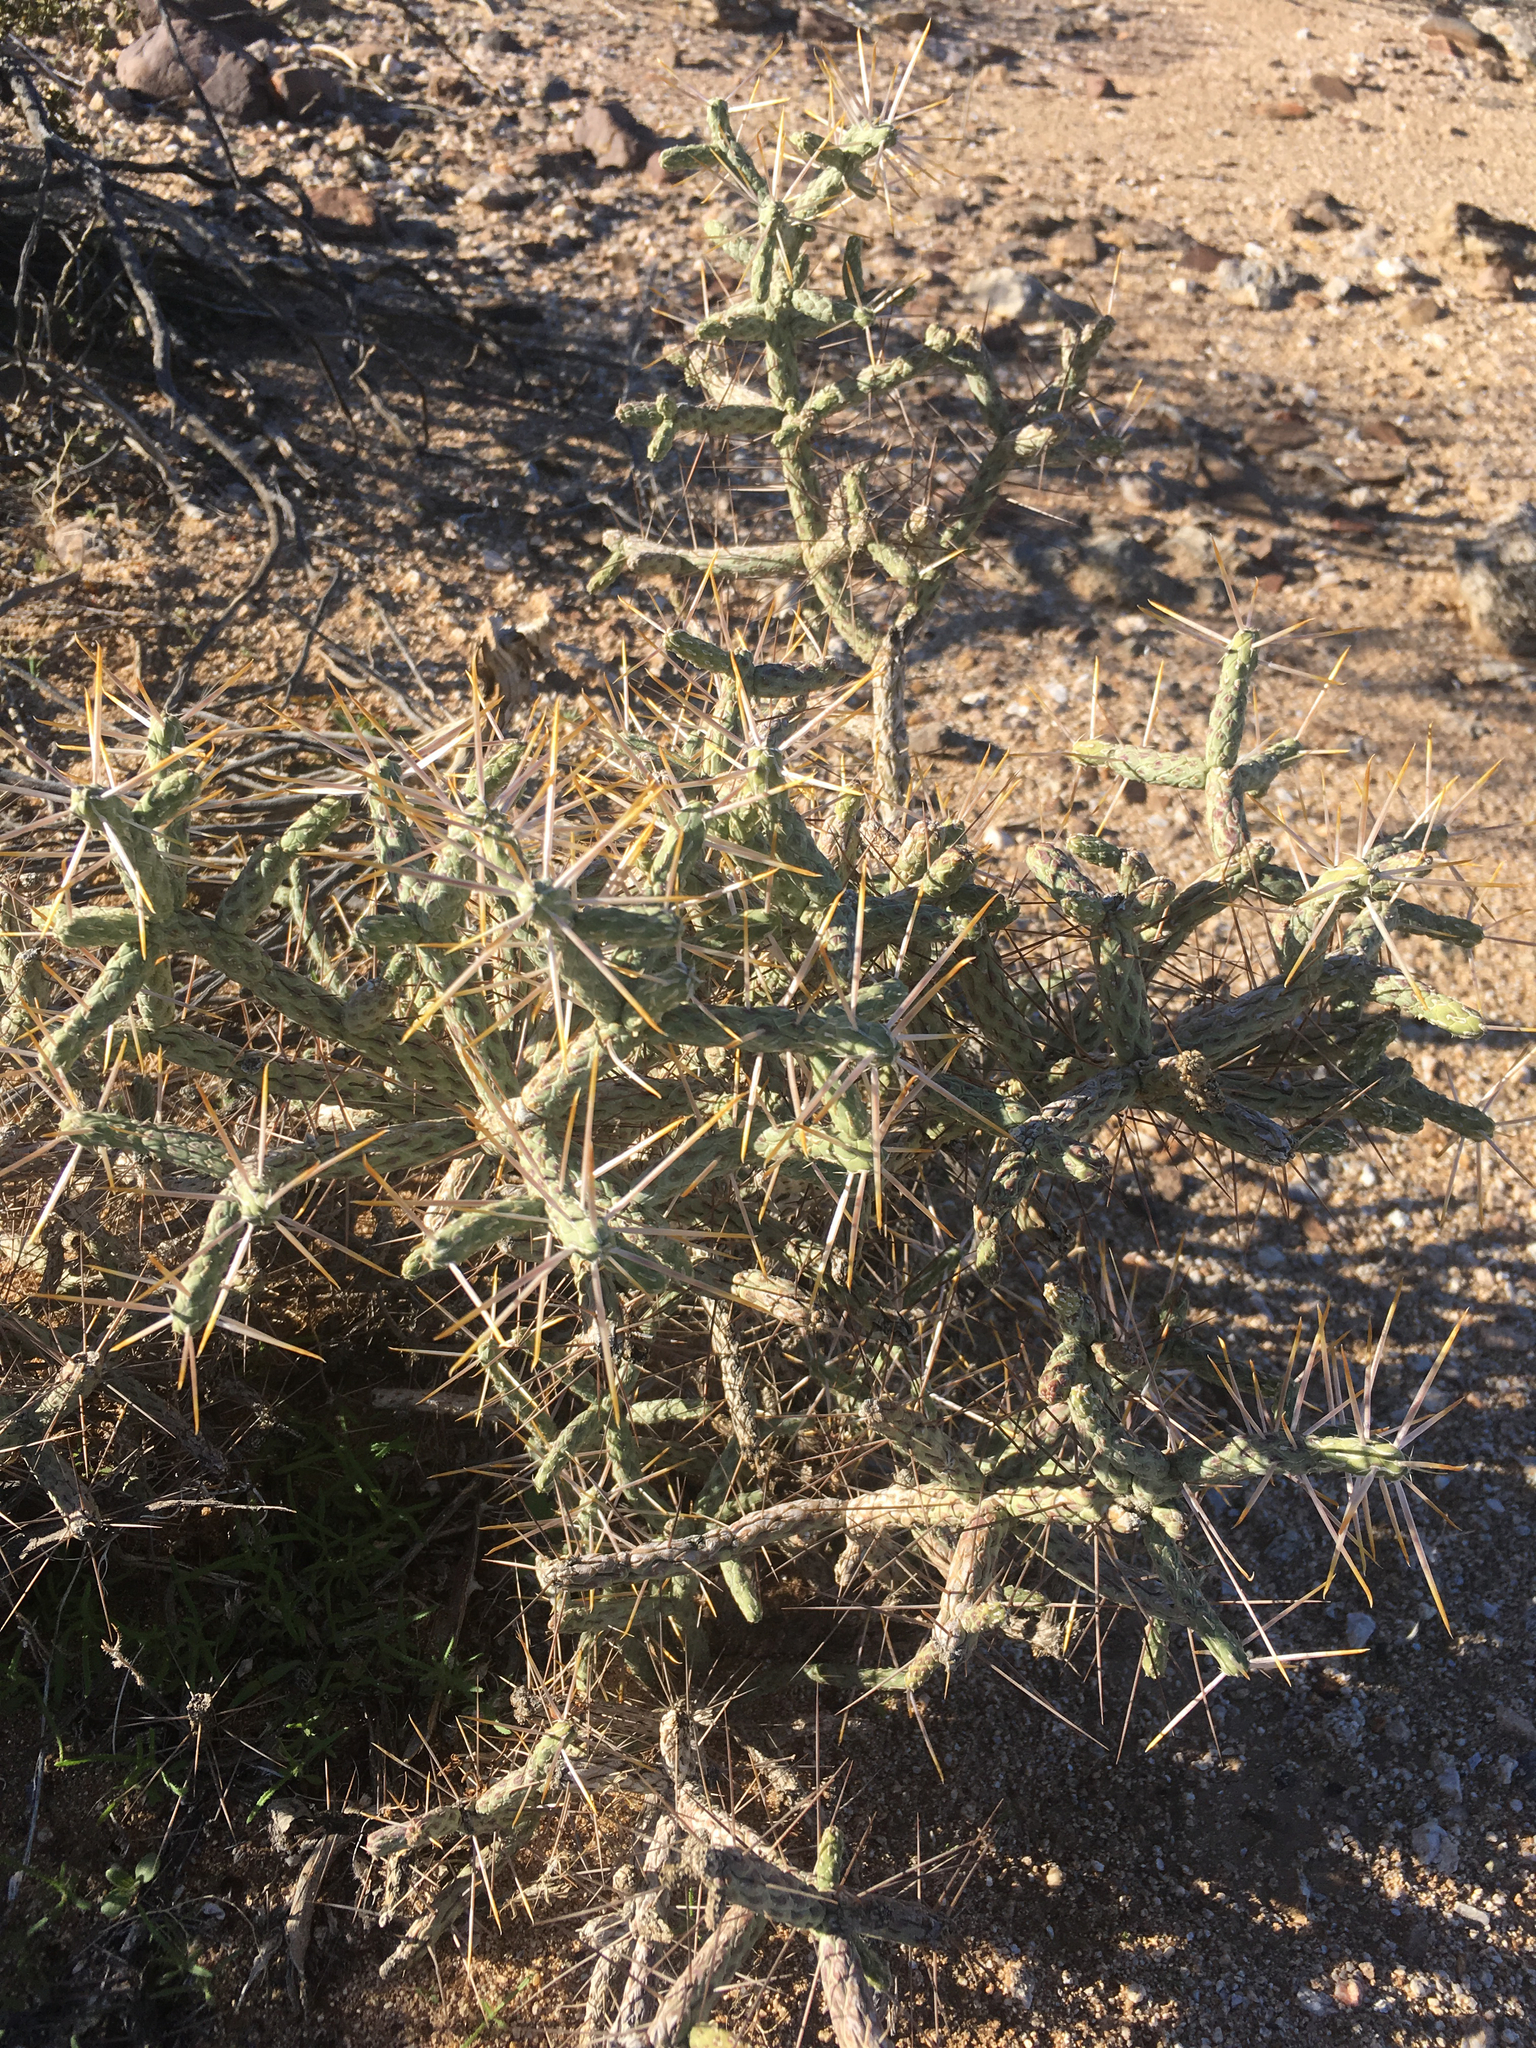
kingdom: Plantae
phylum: Tracheophyta
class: Magnoliopsida
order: Caryophyllales
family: Cactaceae
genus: Cylindropuntia
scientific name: Cylindropuntia ramosissima
